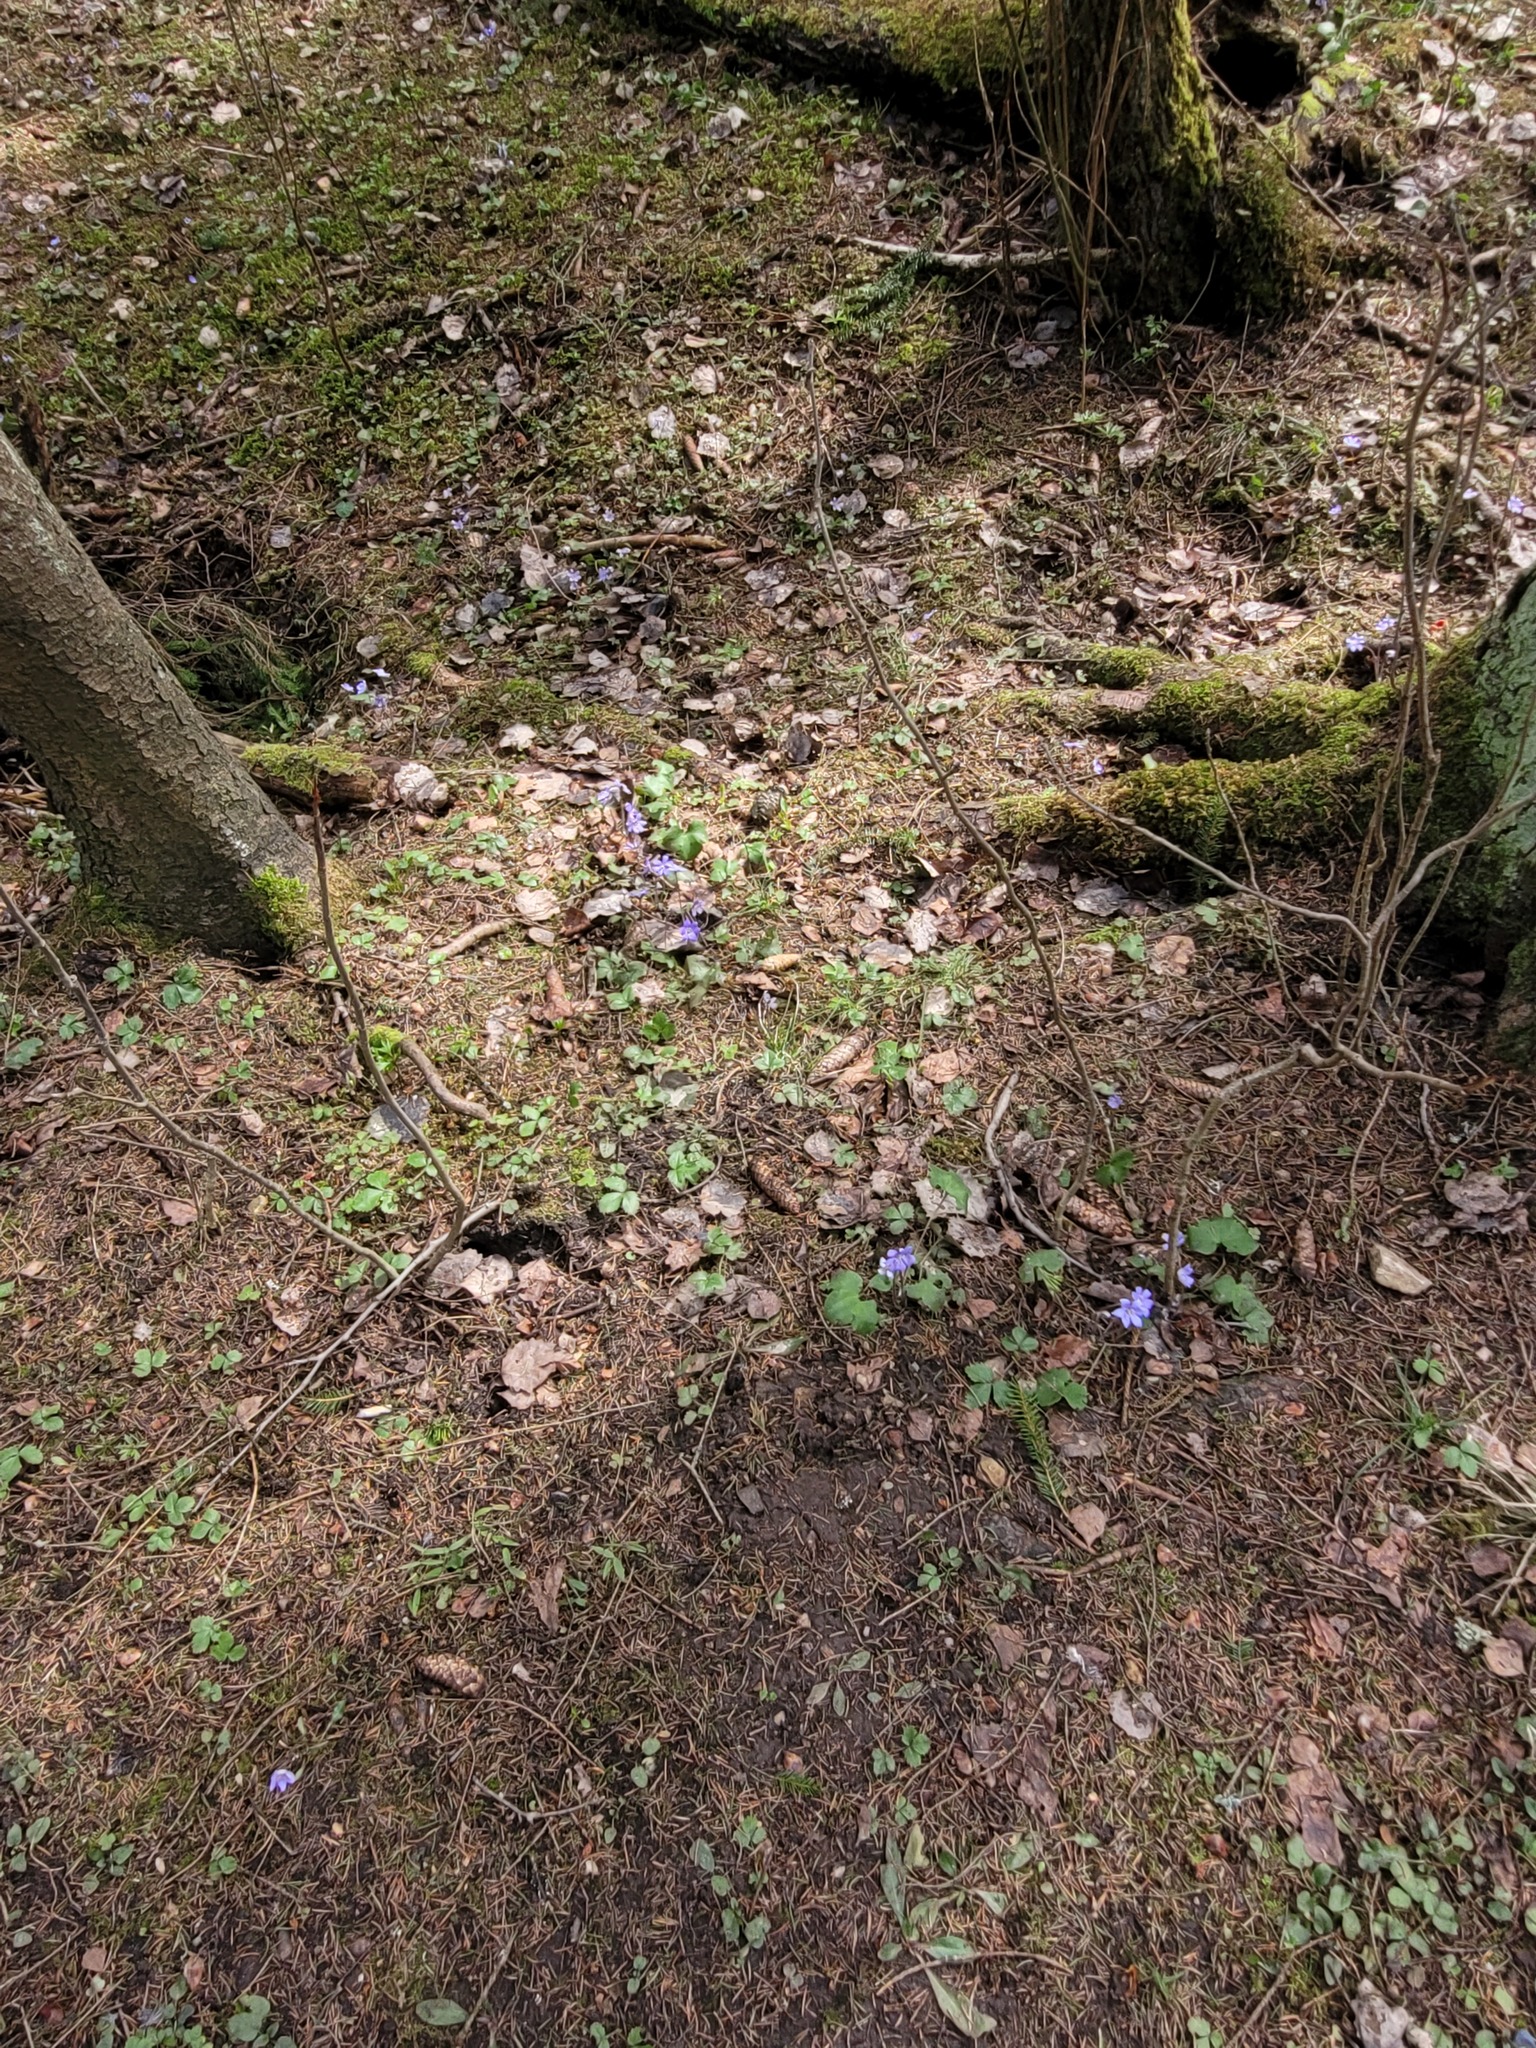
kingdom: Plantae
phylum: Tracheophyta
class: Magnoliopsida
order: Ranunculales
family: Ranunculaceae
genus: Hepatica
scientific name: Hepatica nobilis
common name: Liverleaf
